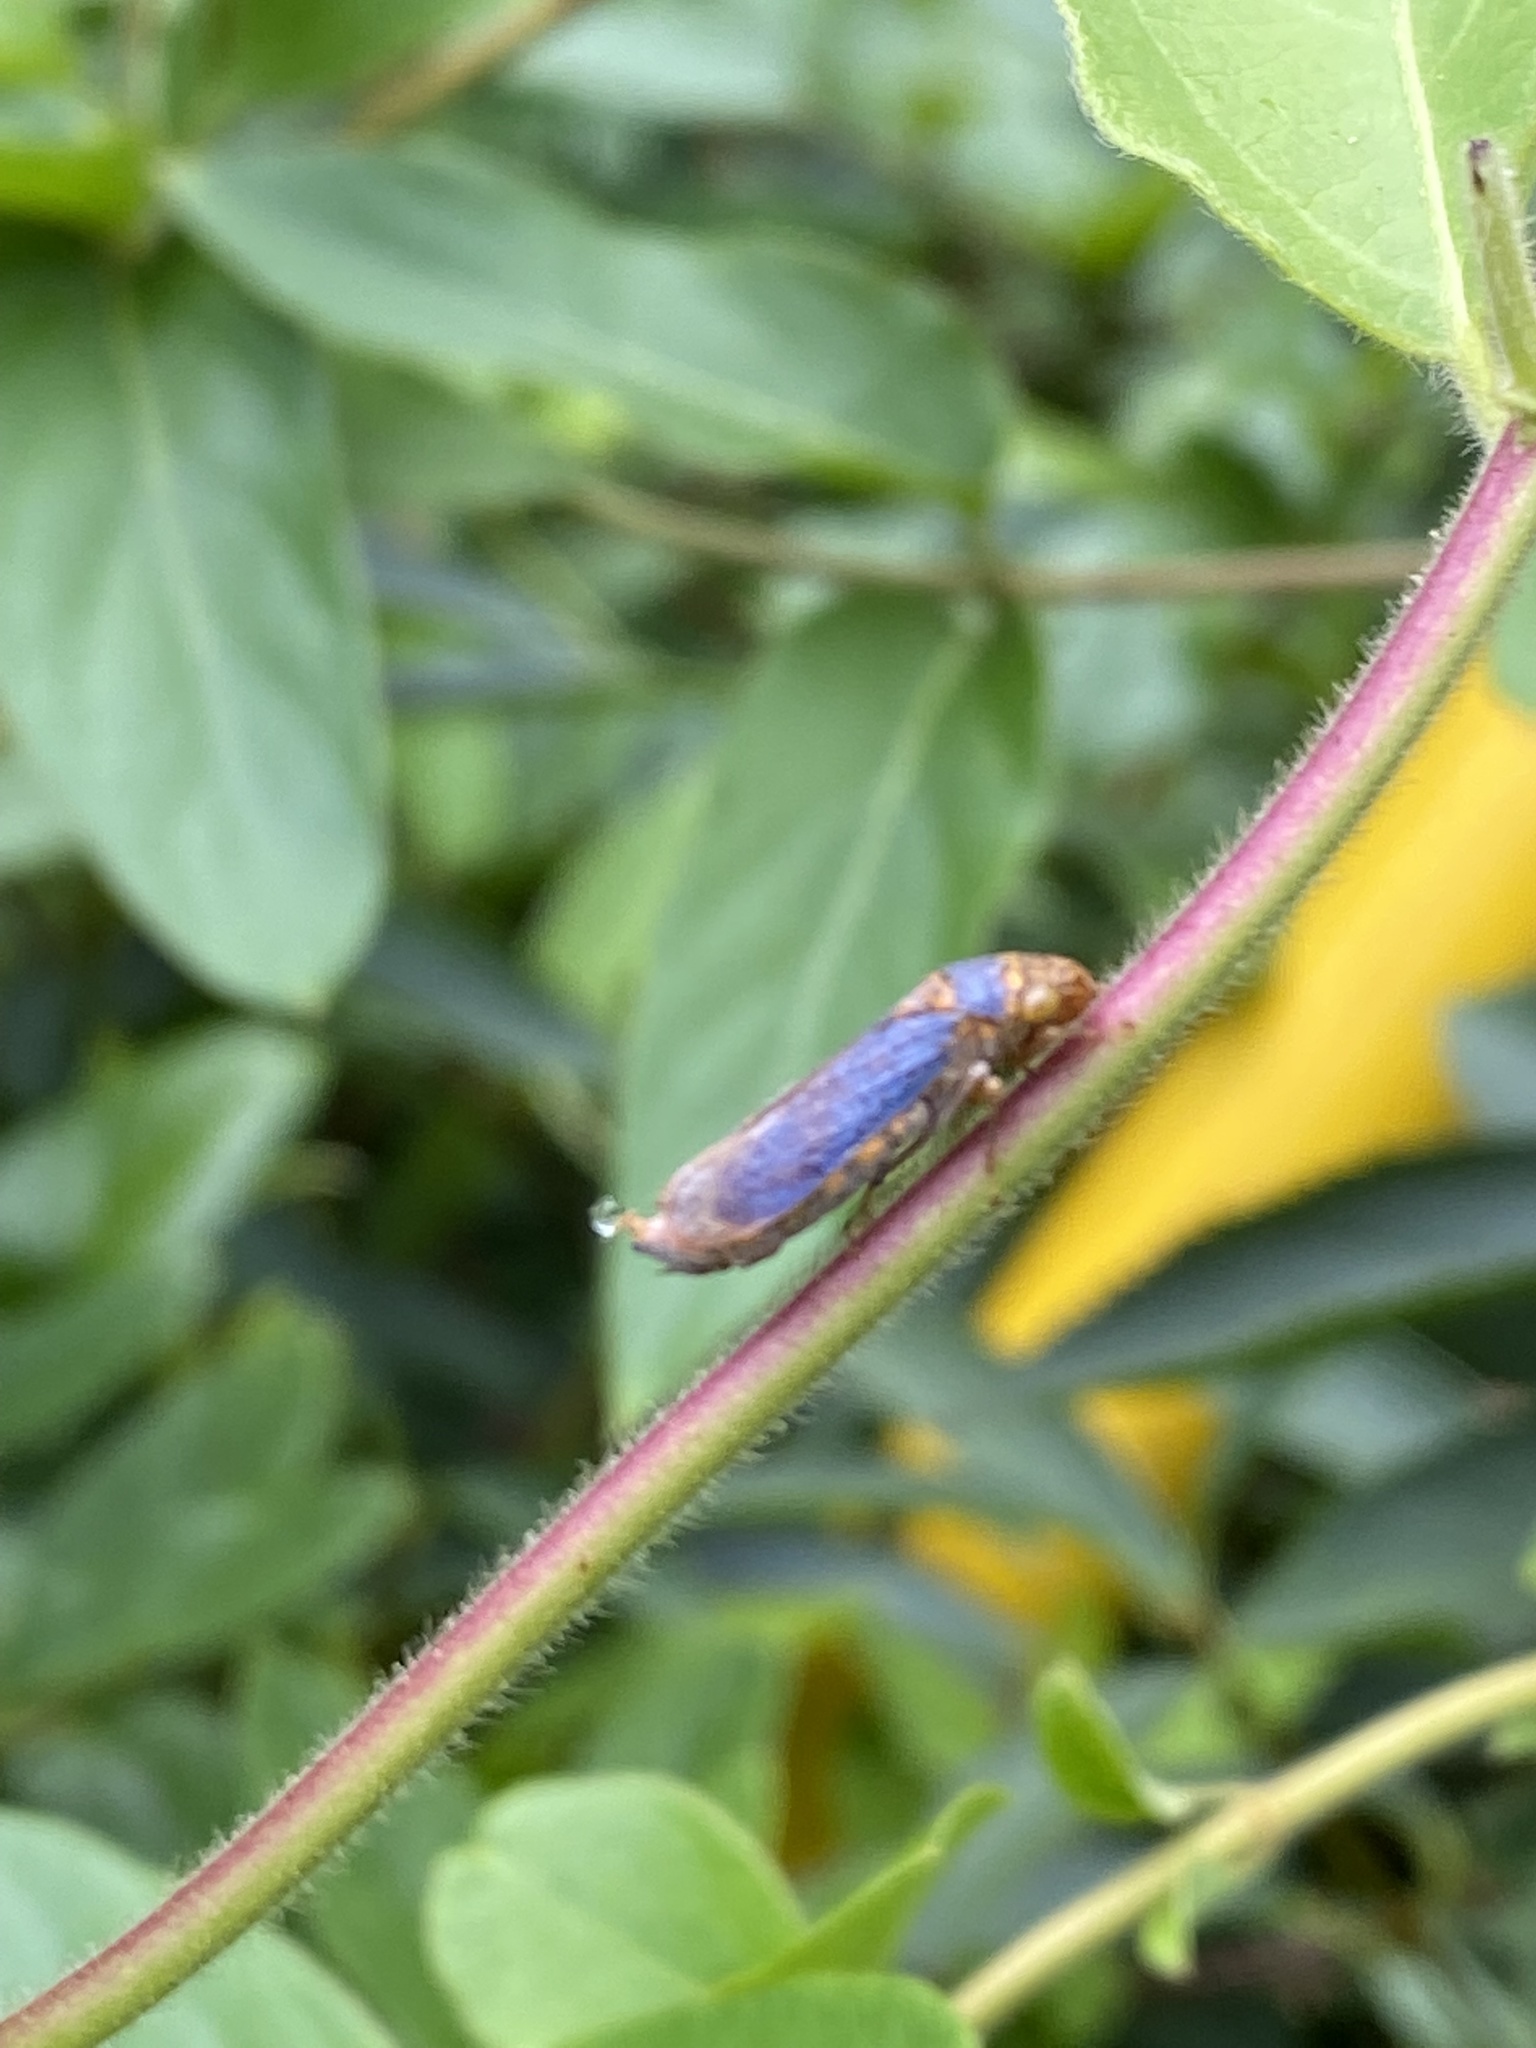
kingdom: Animalia
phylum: Arthropoda
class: Insecta
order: Hemiptera
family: Cicadellidae
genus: Oncometopia
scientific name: Oncometopia orbona
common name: Broad-headed sharpshooter
